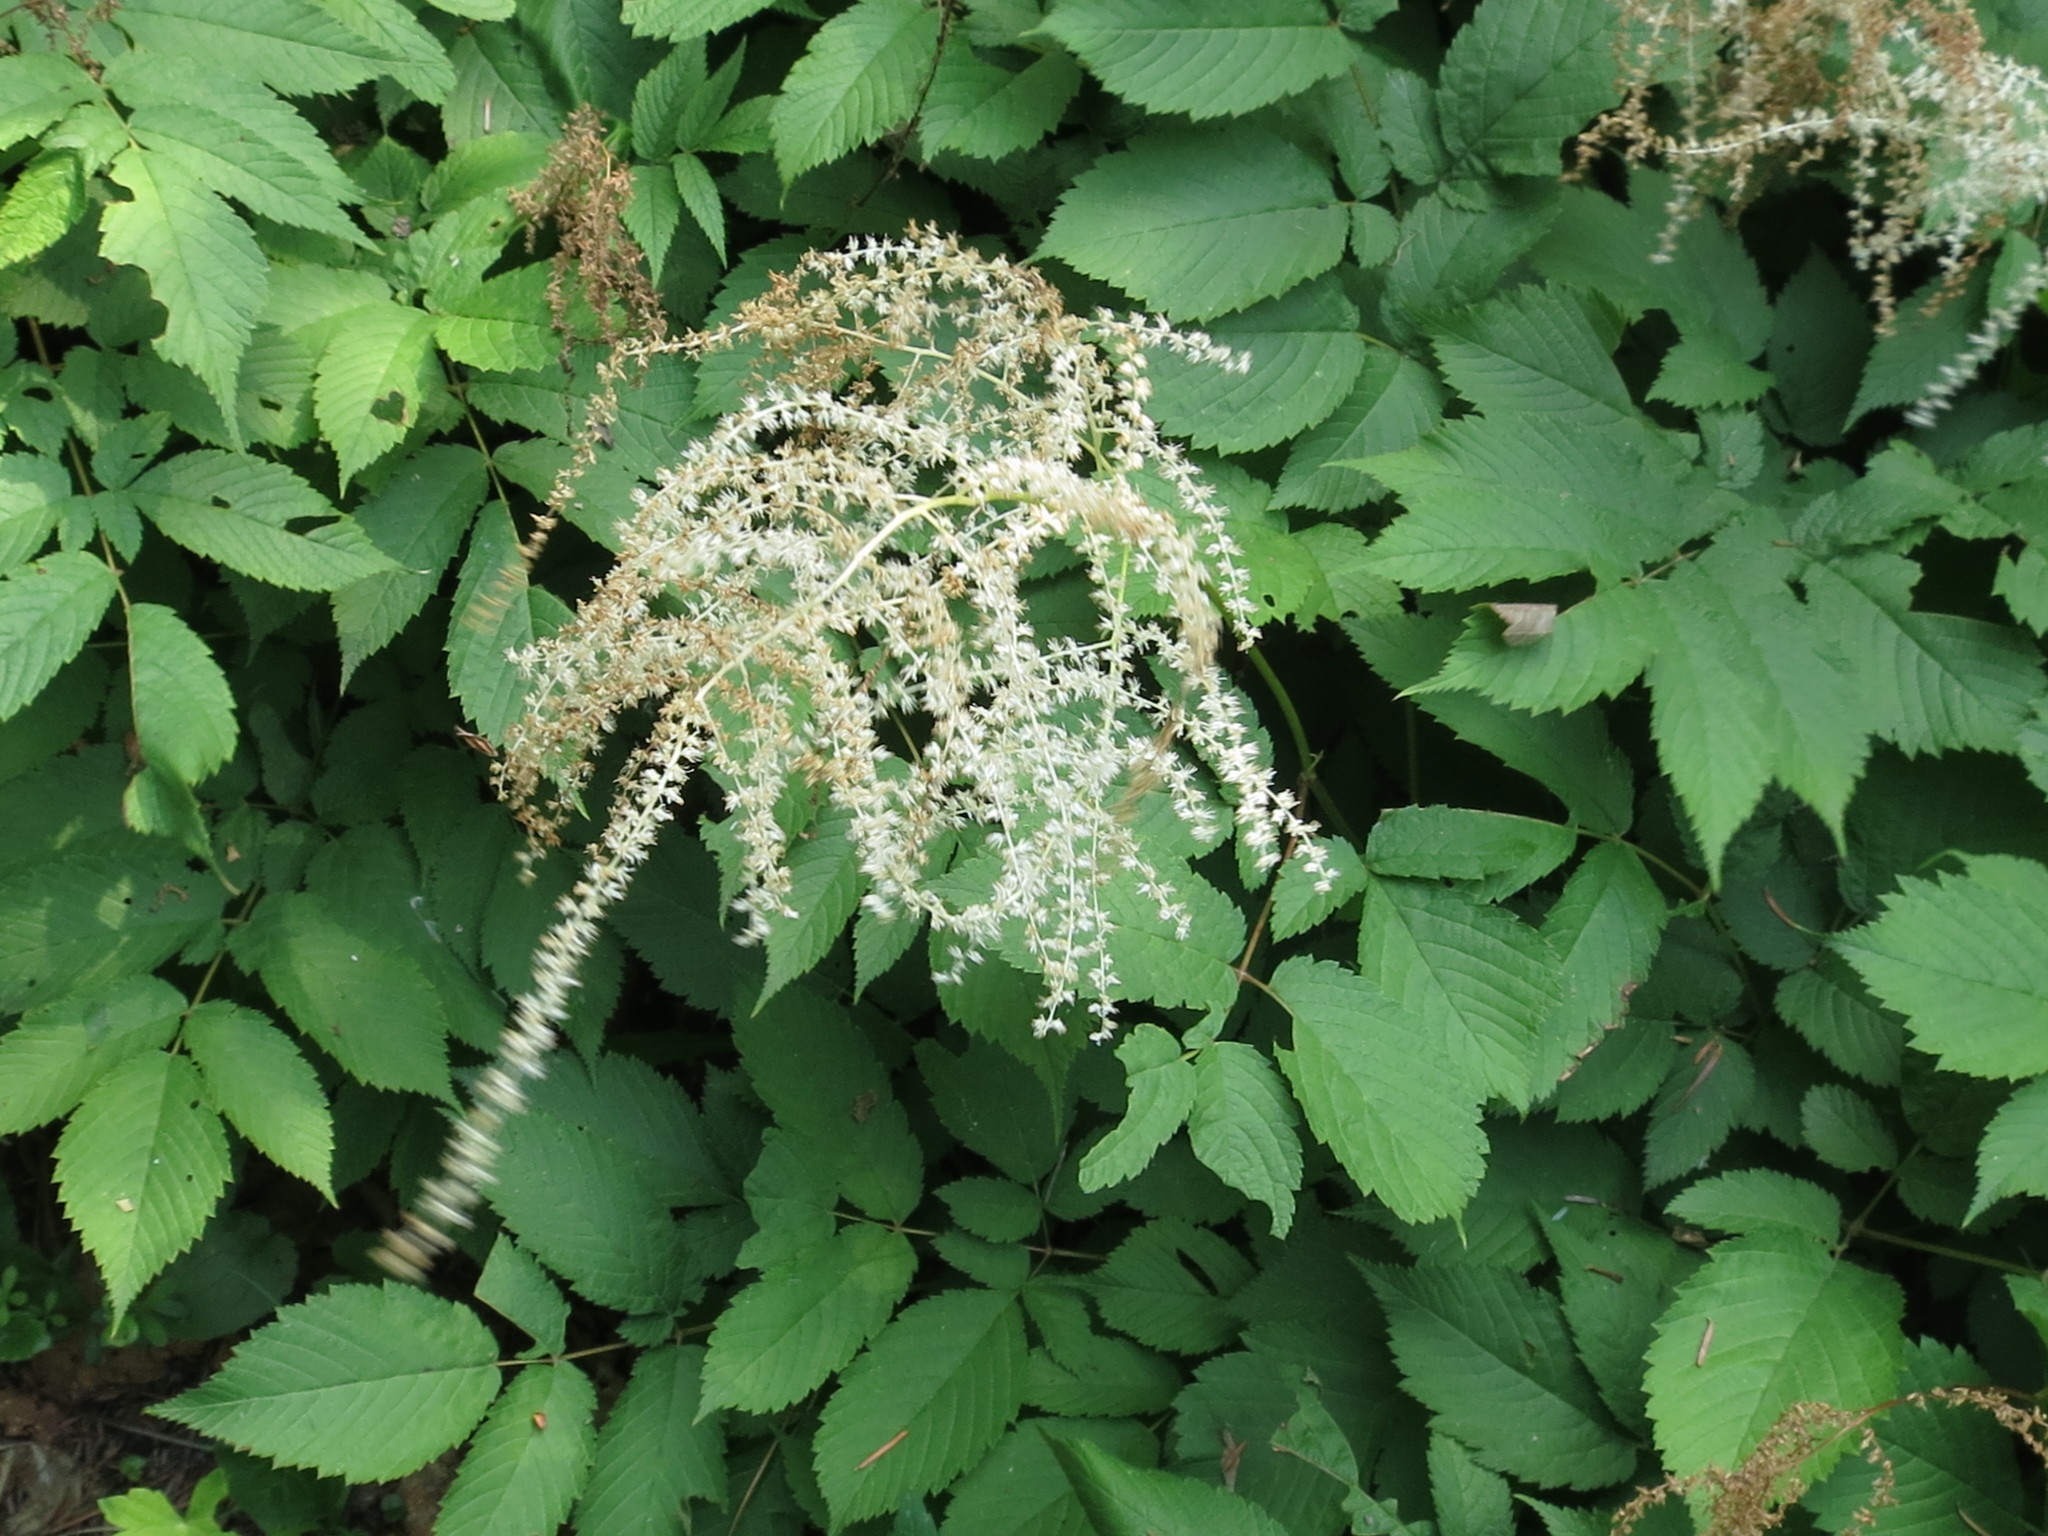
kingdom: Plantae
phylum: Tracheophyta
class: Magnoliopsida
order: Rosales
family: Rosaceae
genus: Aruncus
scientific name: Aruncus dioicus
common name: Buck's-beard
